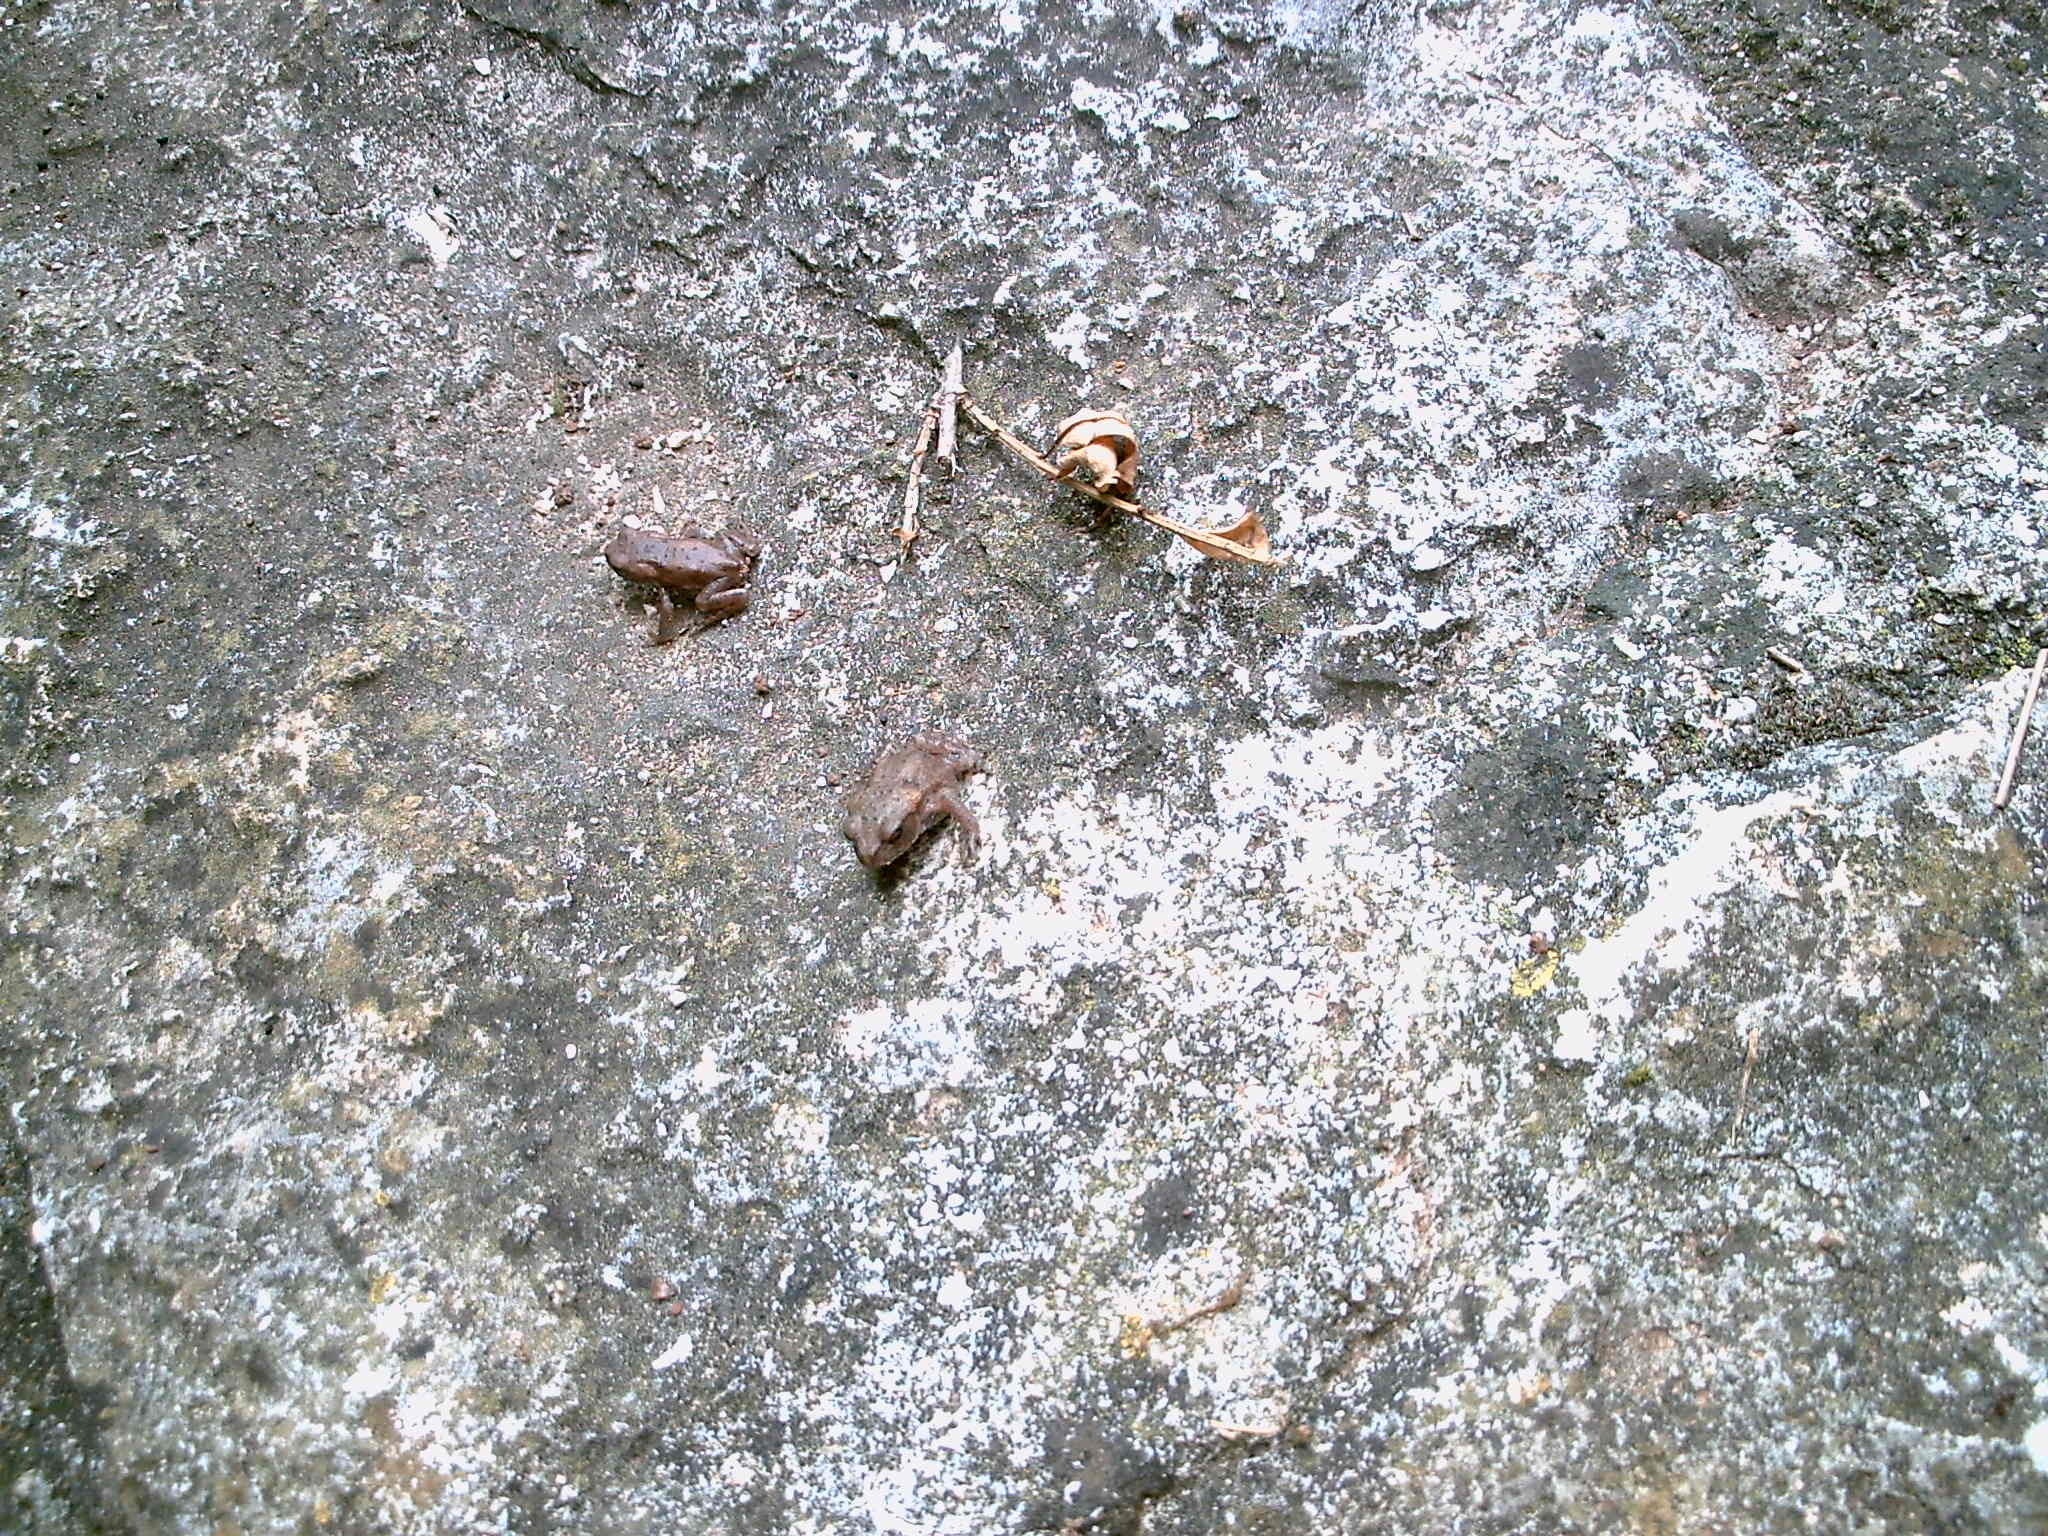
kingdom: Animalia
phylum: Chordata
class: Amphibia
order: Anura
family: Bufonidae
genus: Bufo
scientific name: Bufo bufo
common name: Common toad
